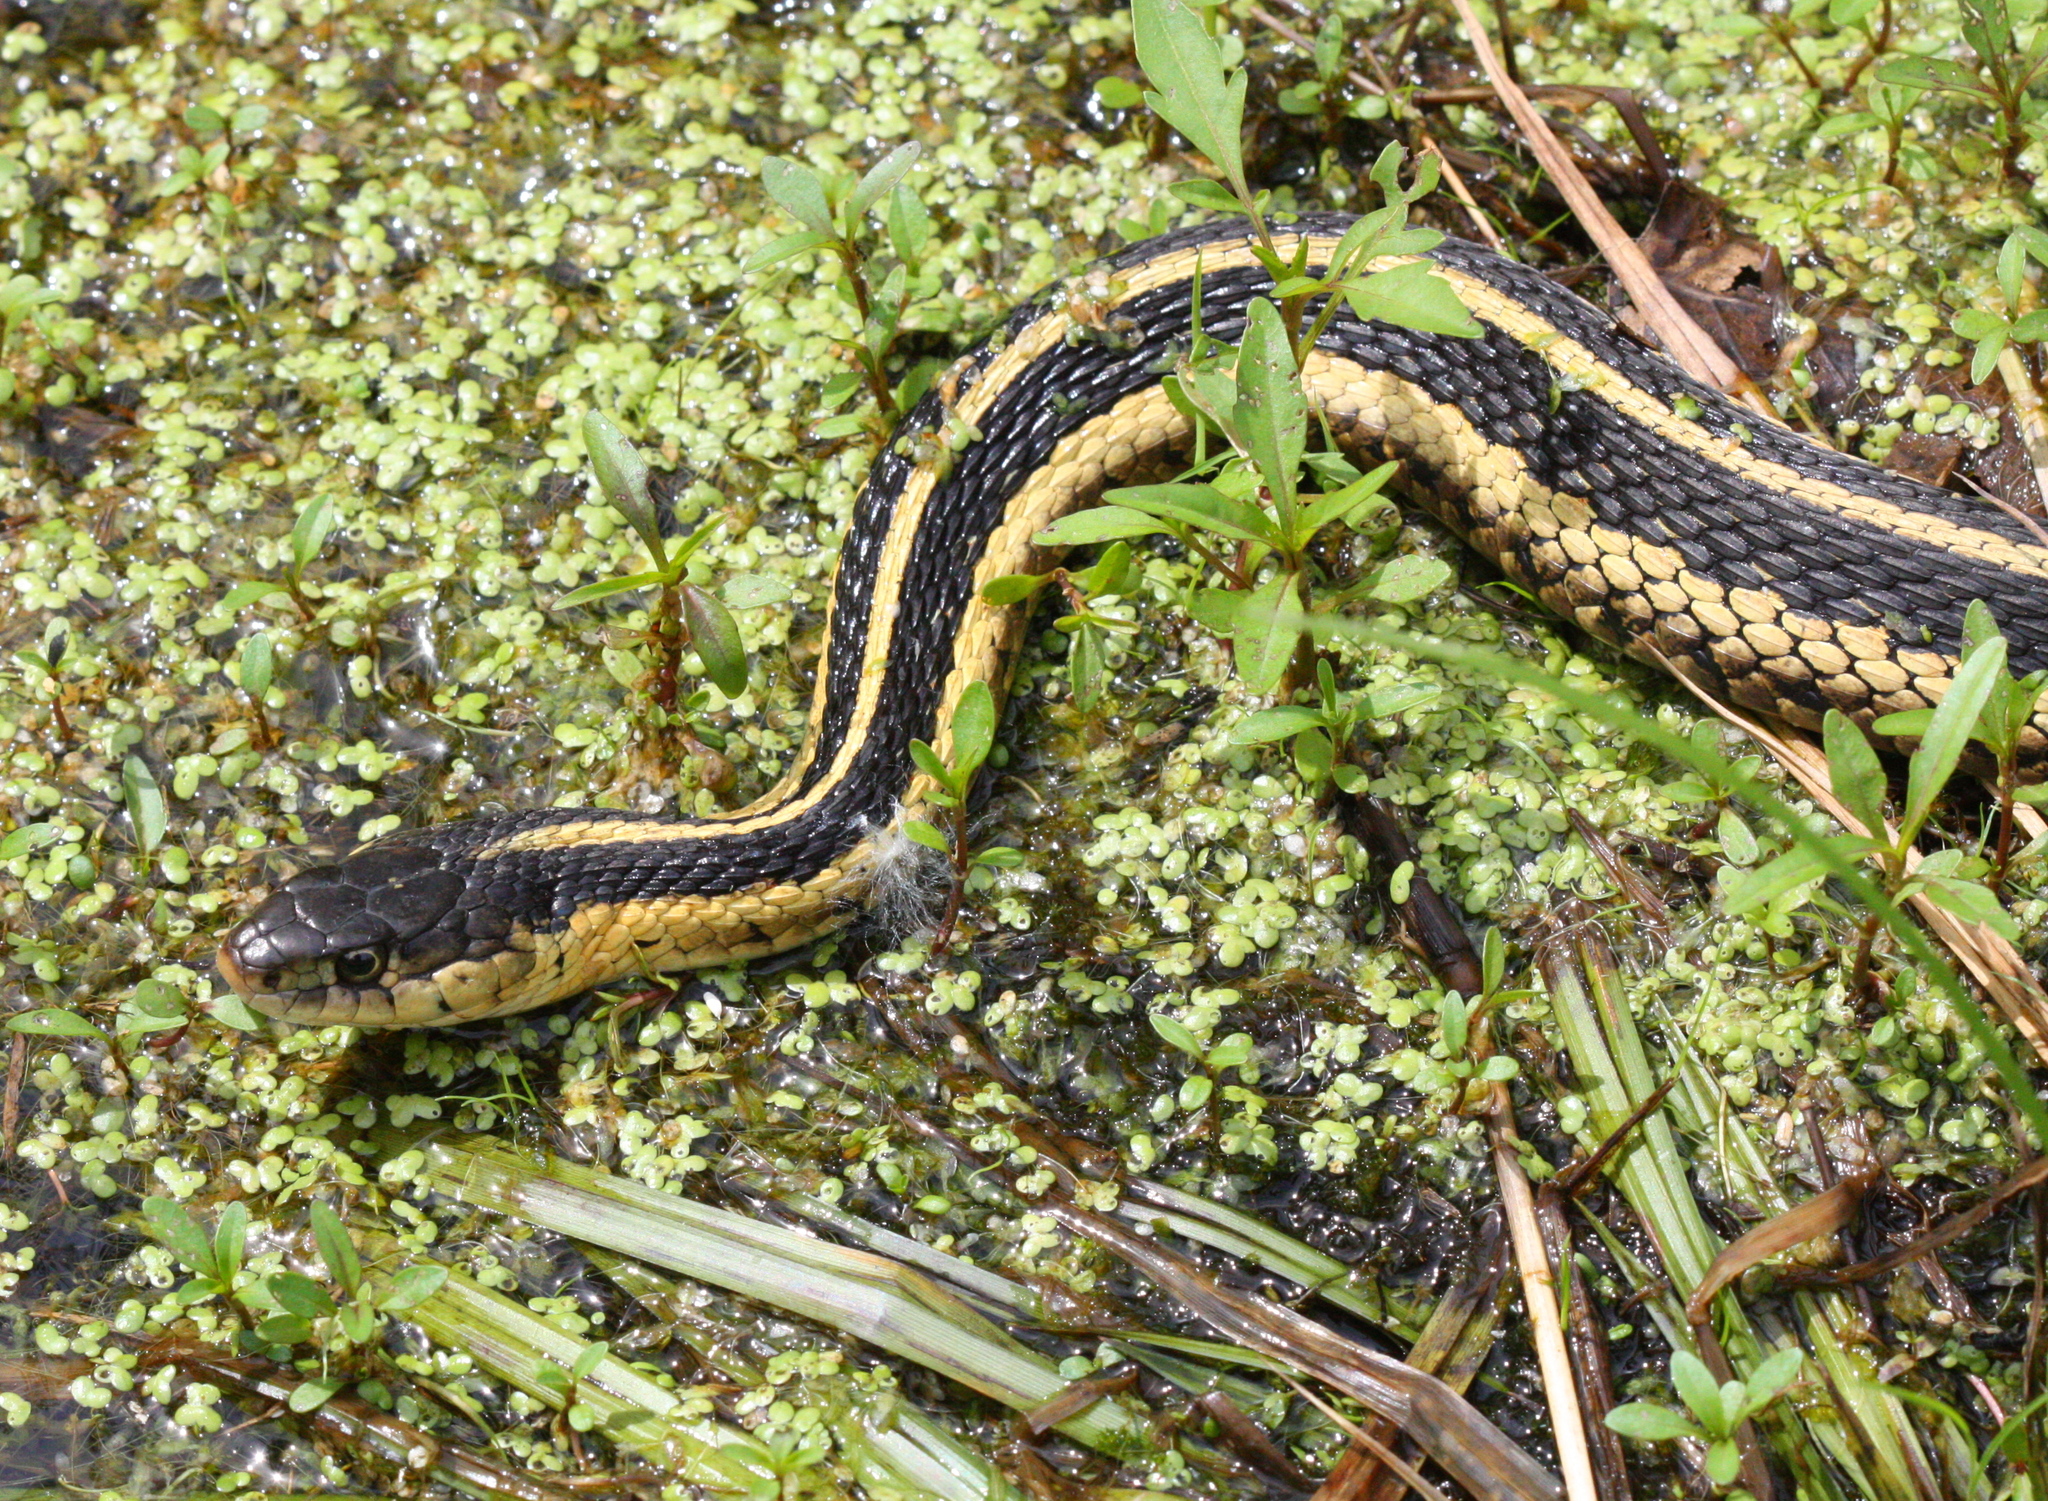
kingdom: Animalia
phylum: Chordata
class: Squamata
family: Colubridae
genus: Thamnophis
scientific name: Thamnophis sirtalis
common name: Common garter snake
